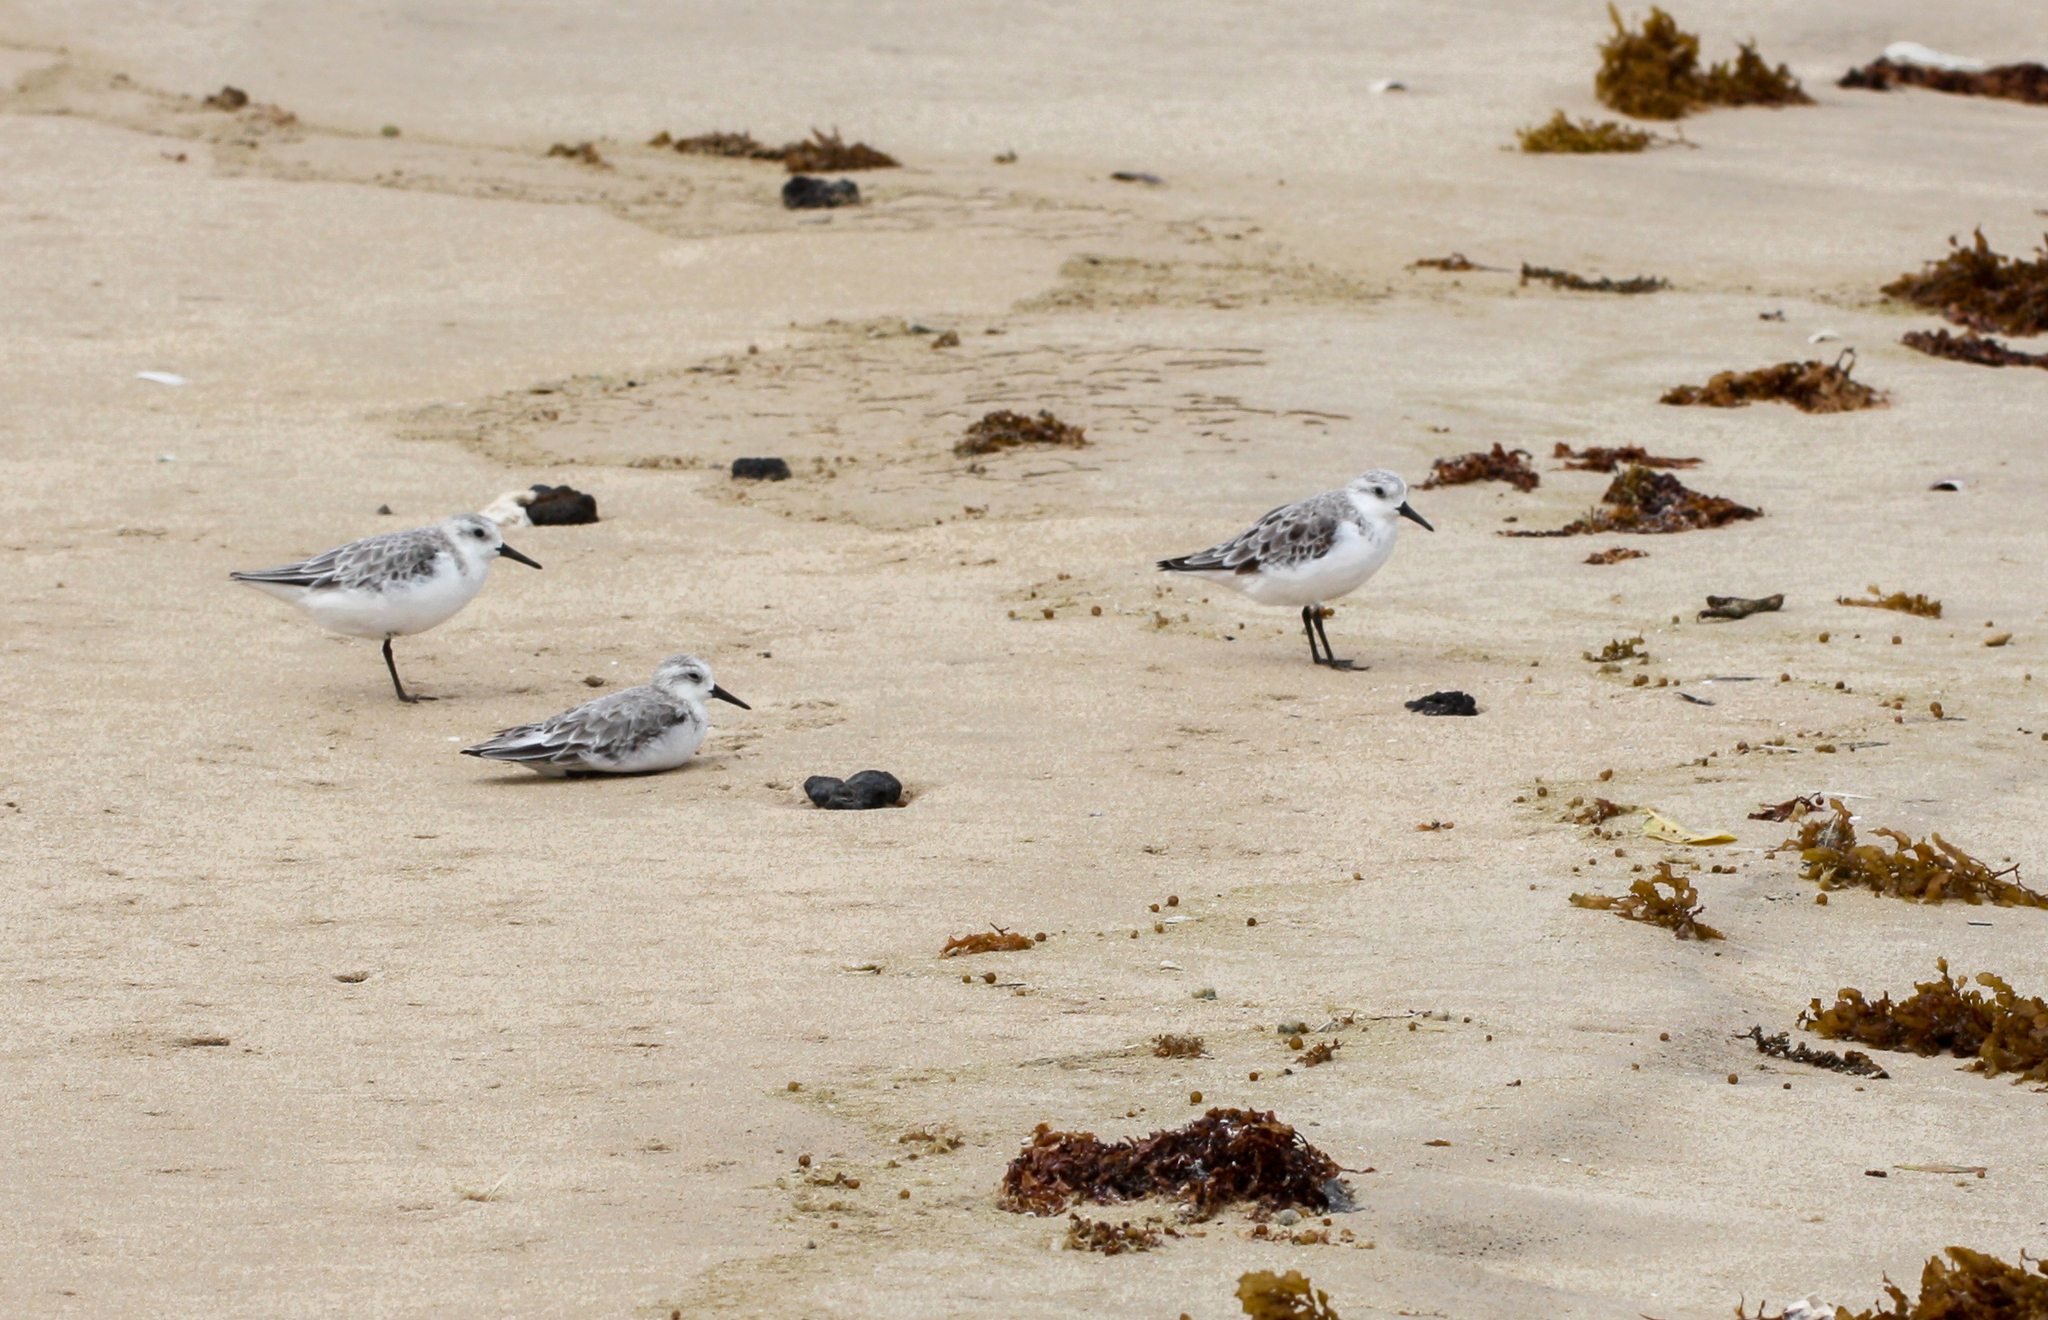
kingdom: Animalia
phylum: Chordata
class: Aves
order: Charadriiformes
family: Scolopacidae
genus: Calidris
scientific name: Calidris alba
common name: Sanderling
